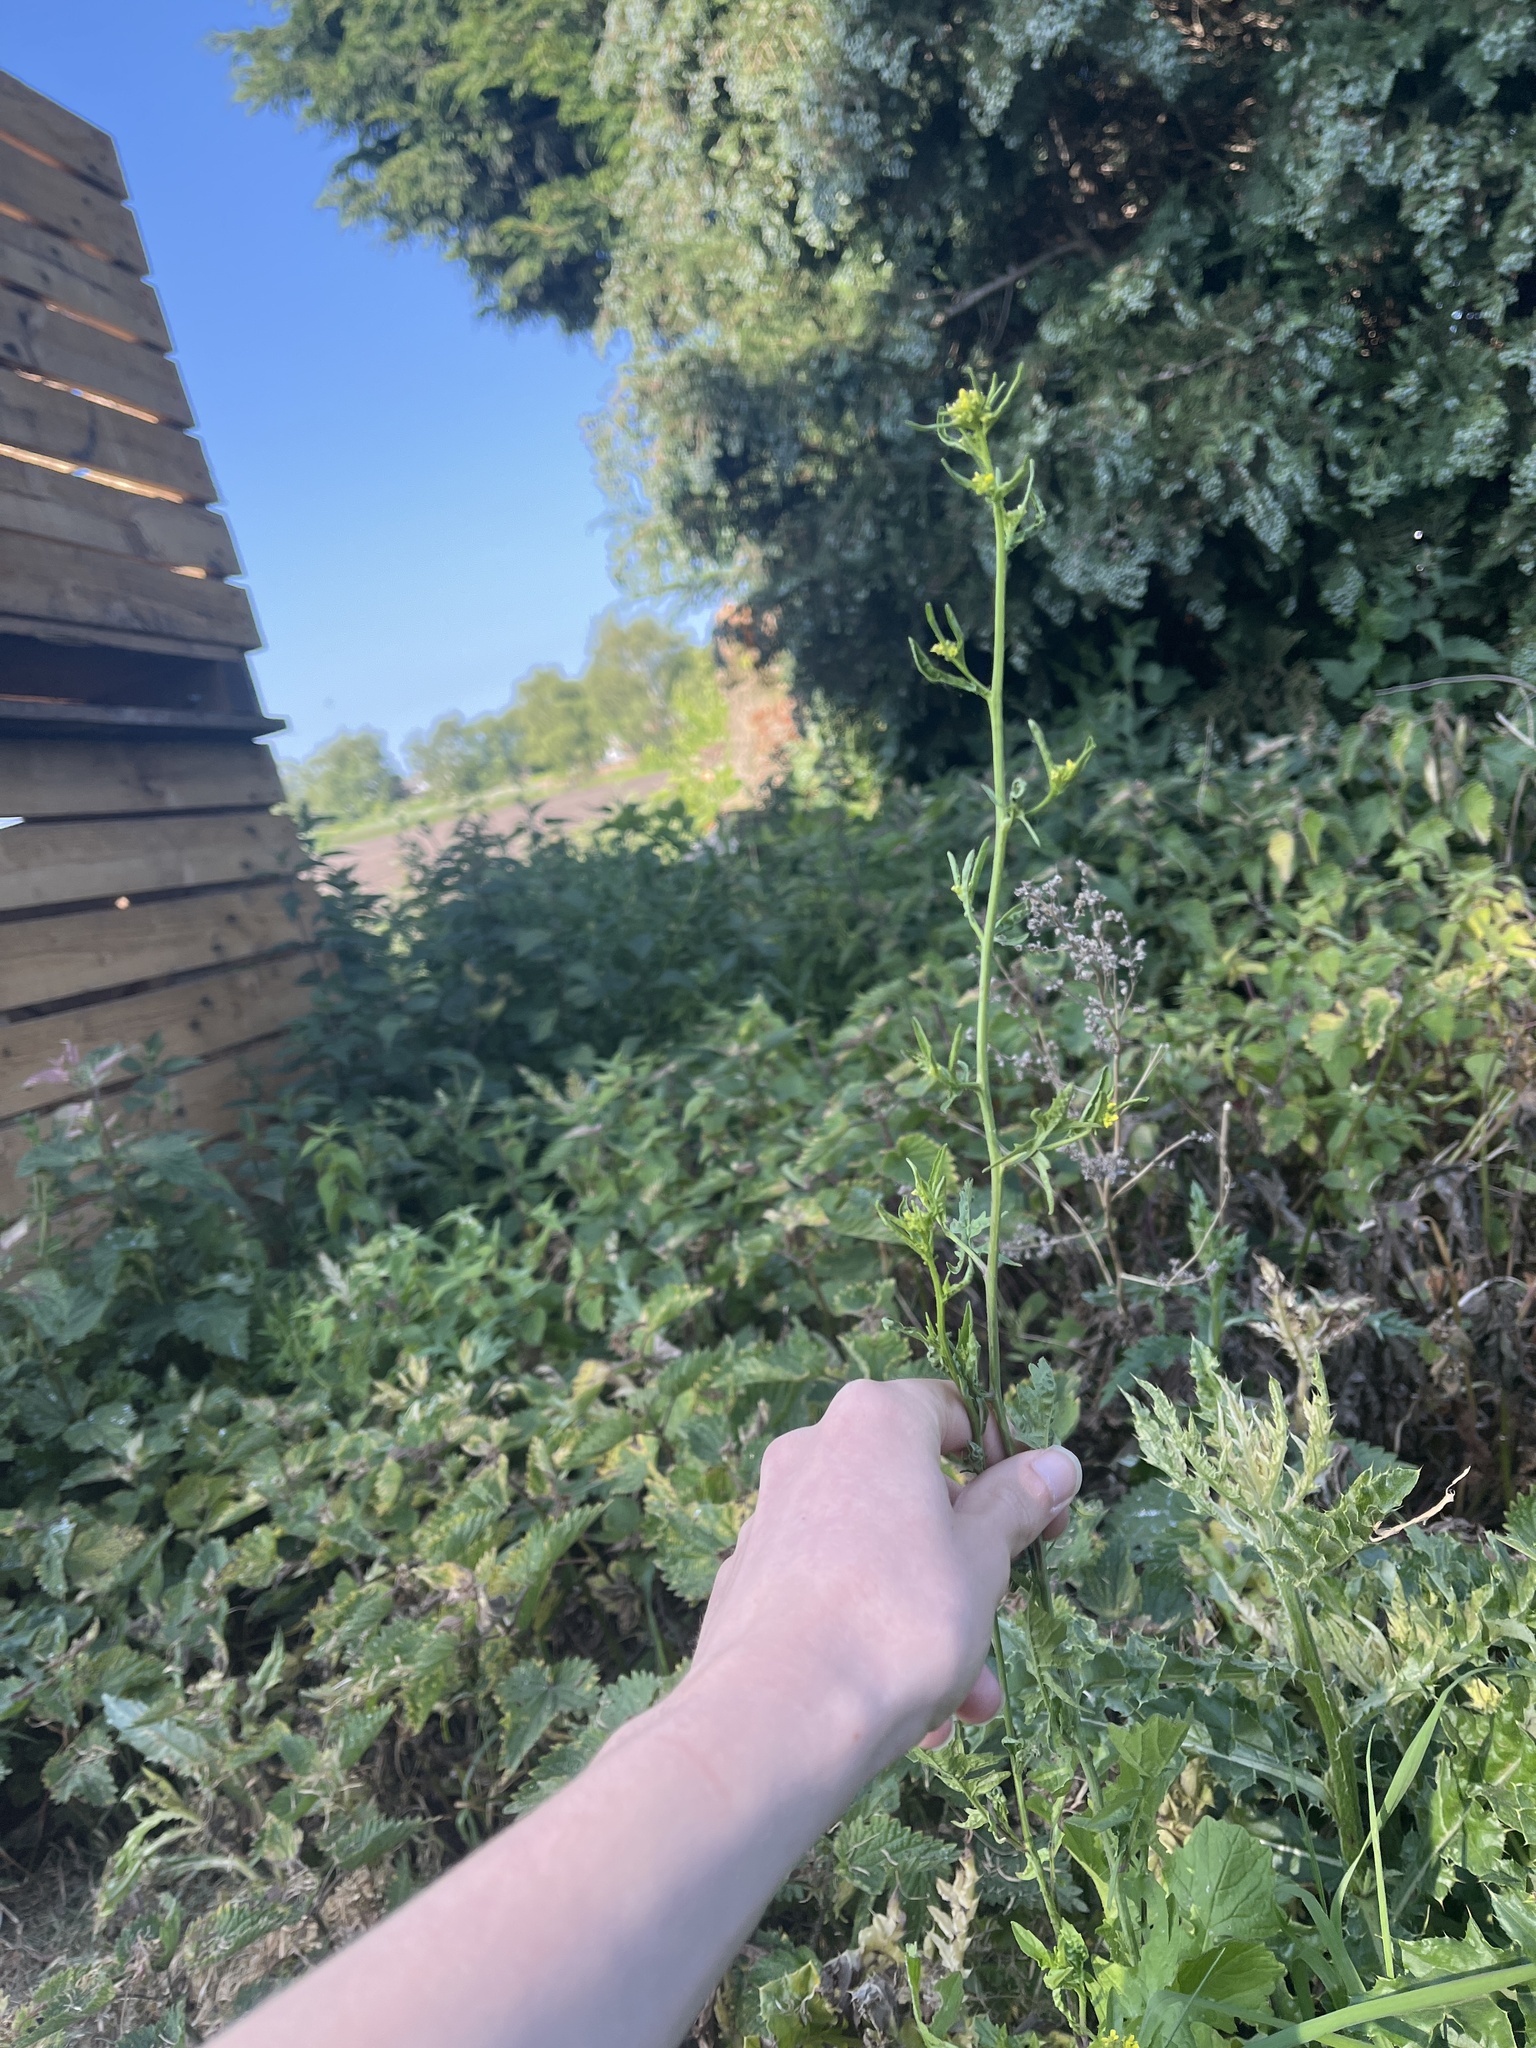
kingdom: Plantae
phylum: Tracheophyta
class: Magnoliopsida
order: Brassicales
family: Brassicaceae
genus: Sisymbrium
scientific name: Sisymbrium officinale
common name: Hedge mustard
